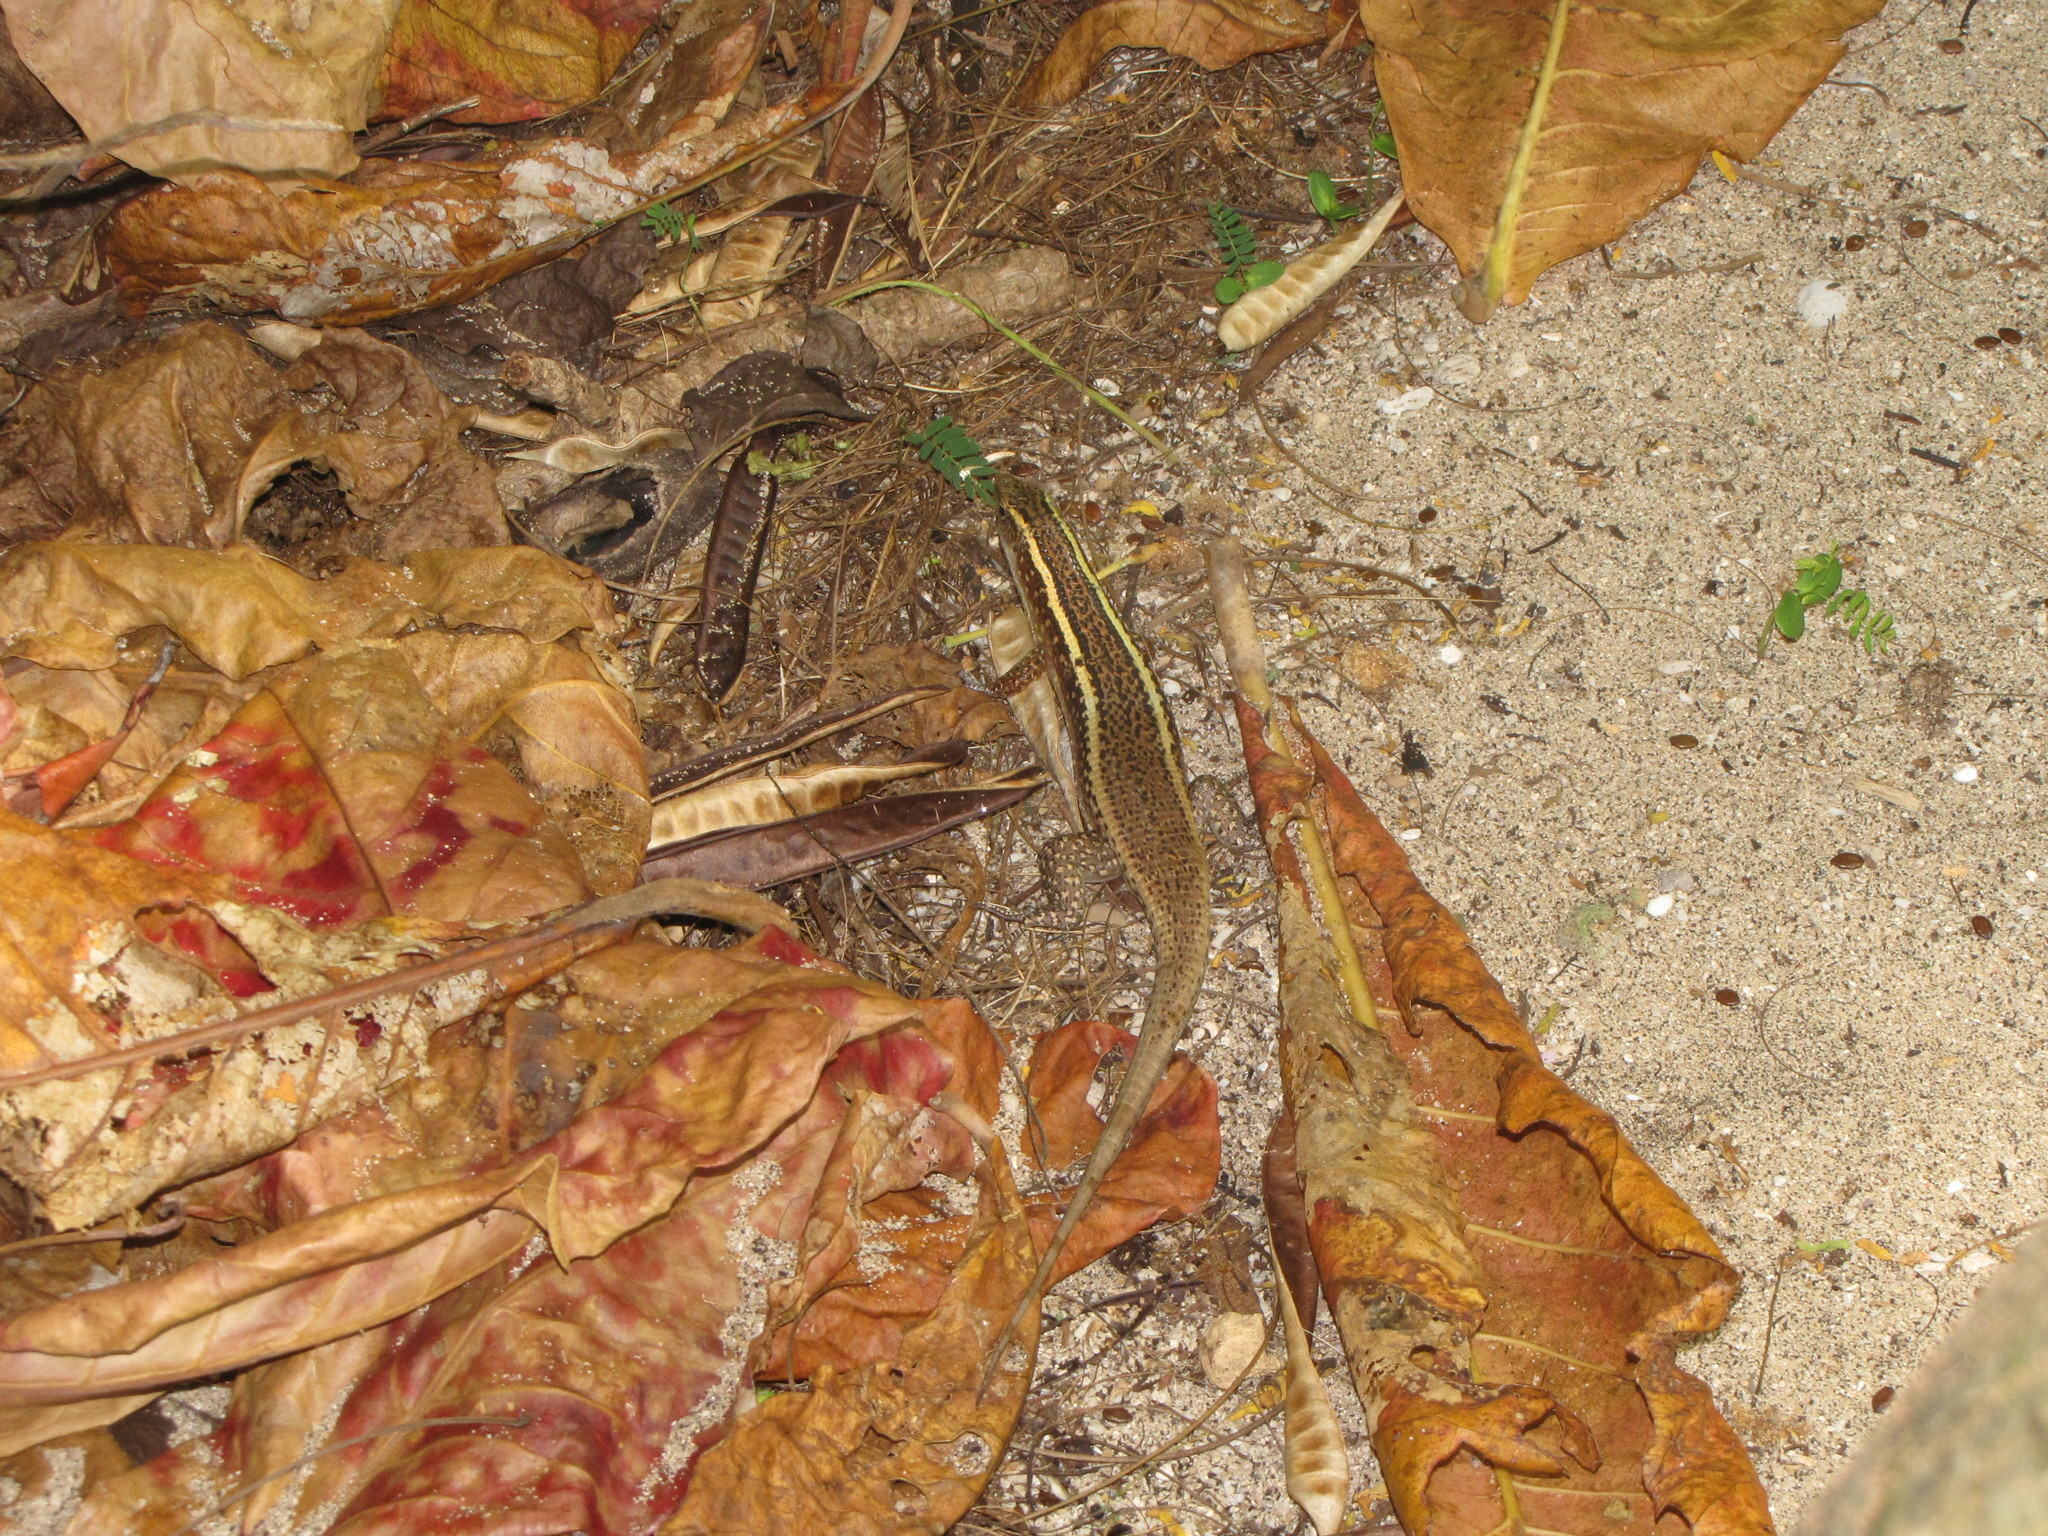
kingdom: Animalia
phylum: Chordata
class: Squamata
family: Gerrhosauridae
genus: Zonosaurus
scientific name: Zonosaurus madagascariensis
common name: Madagascar girdled lizard
